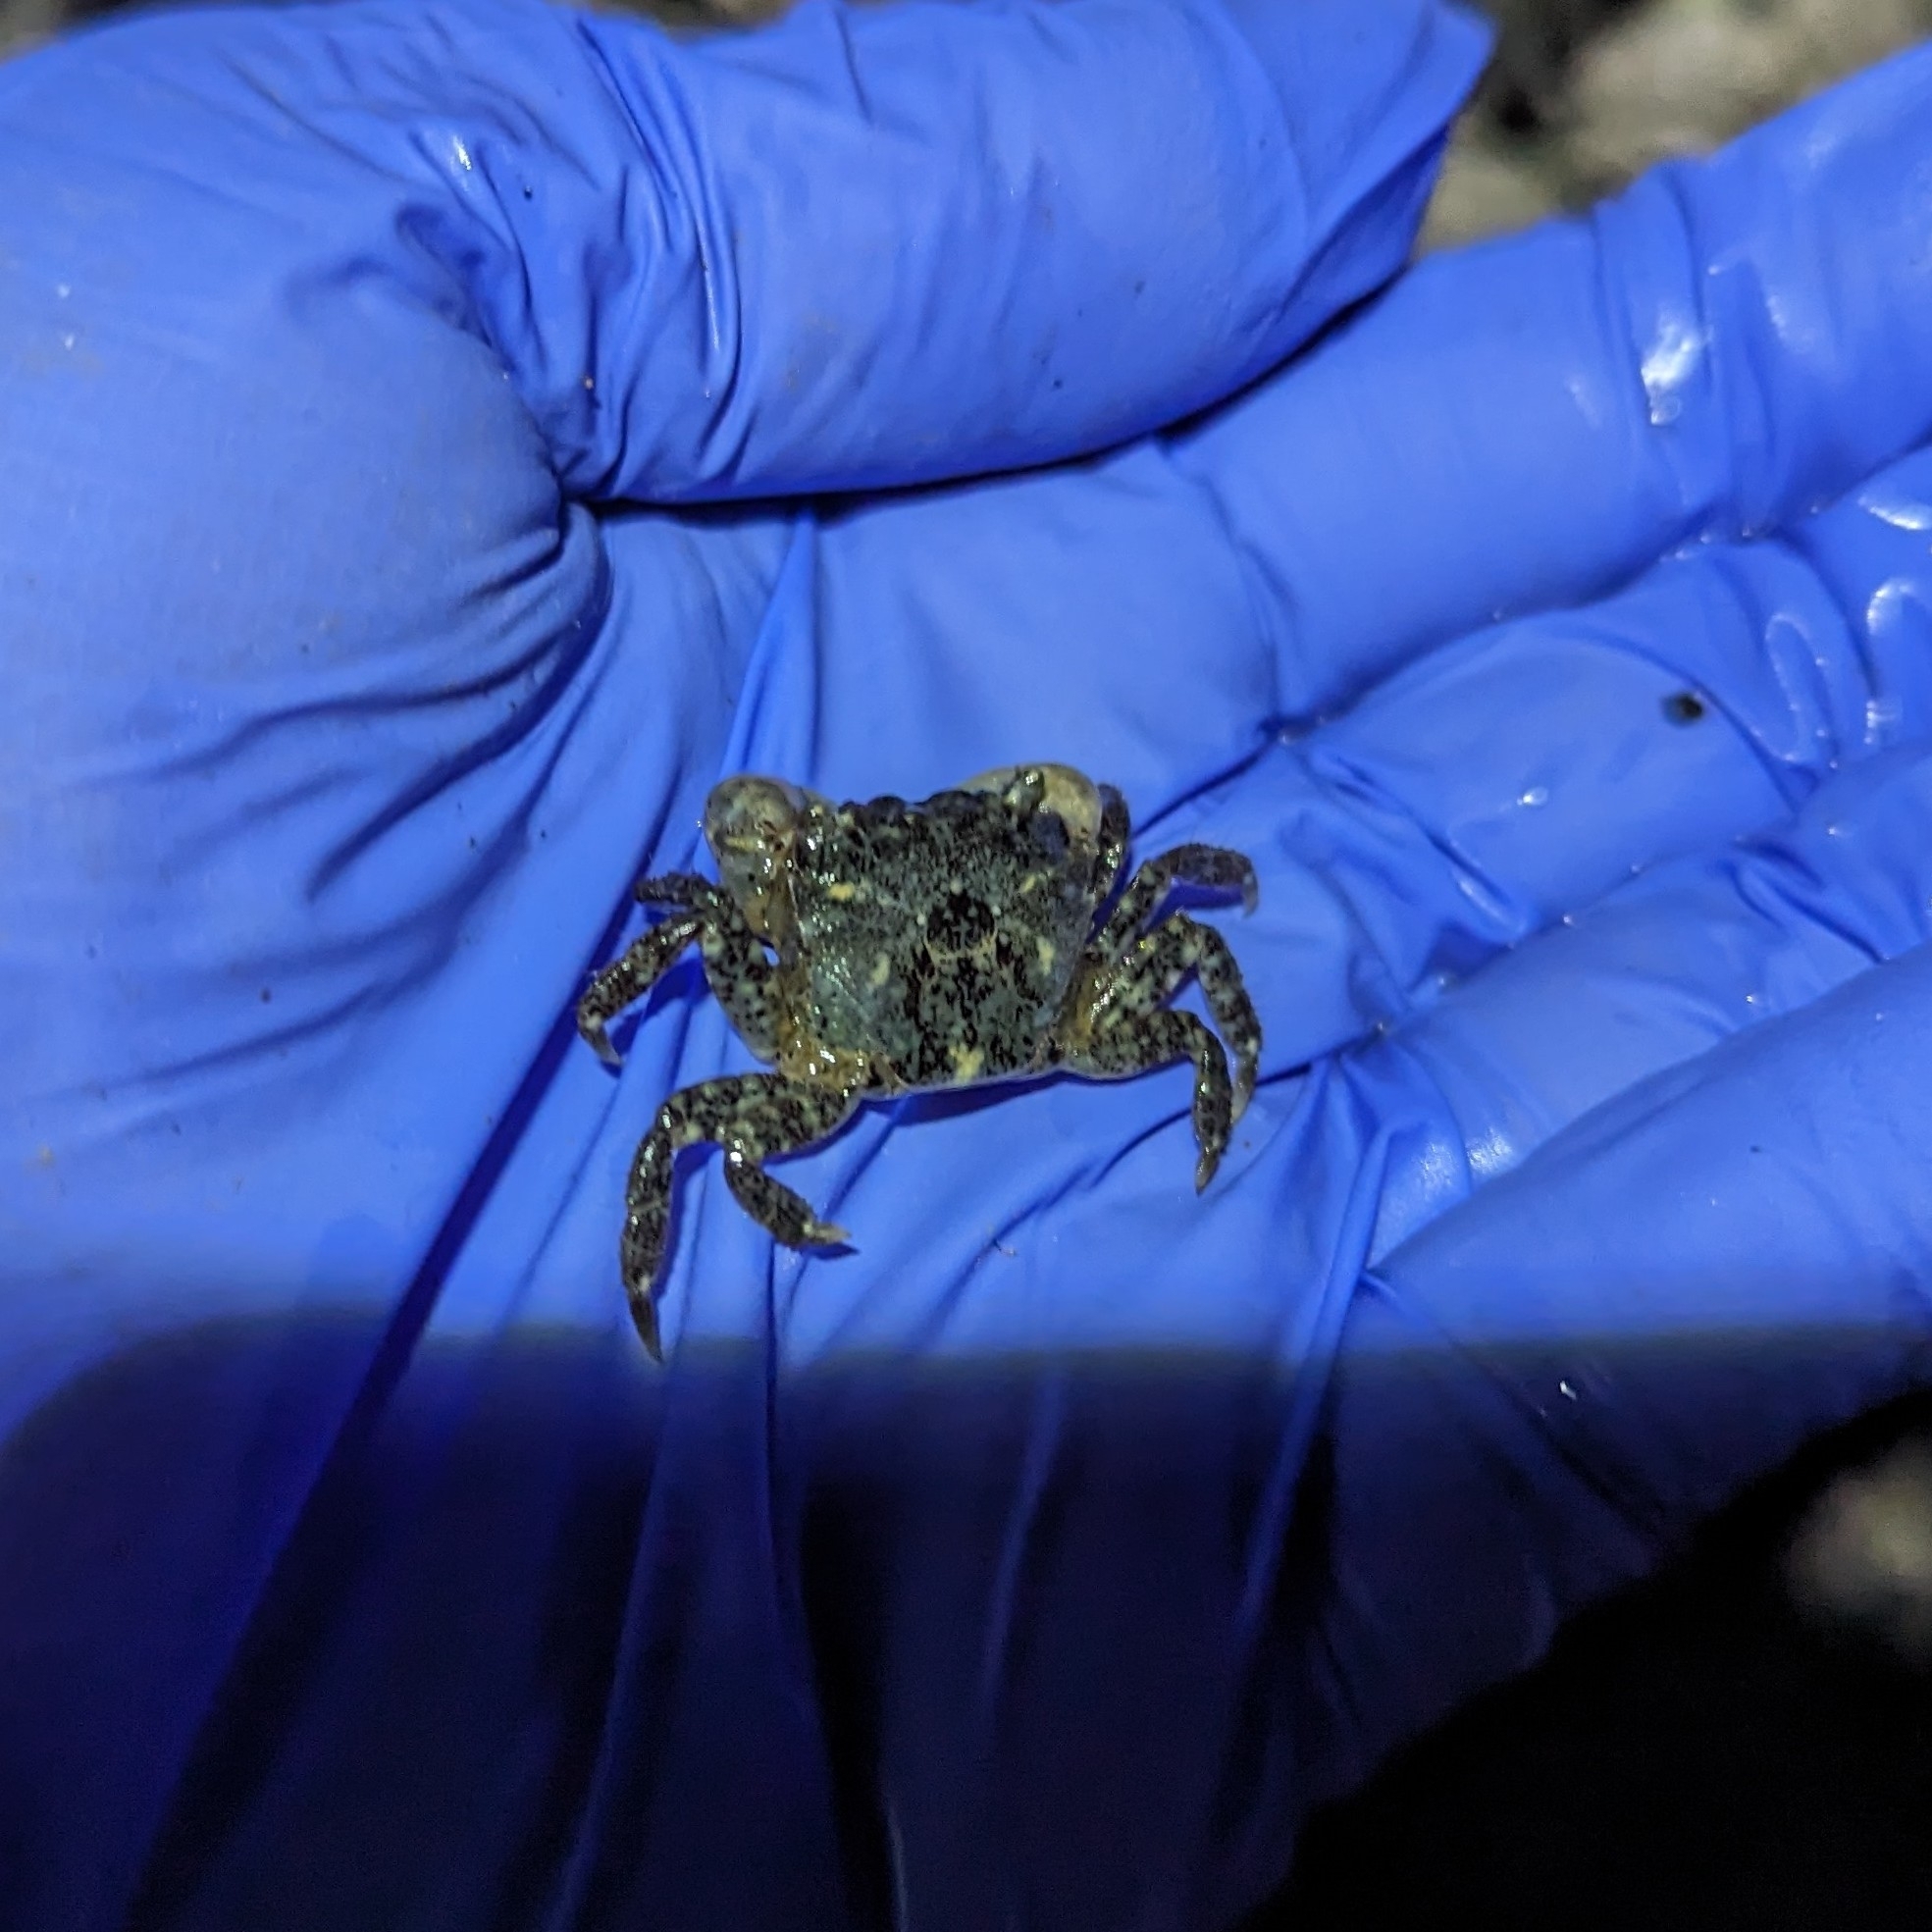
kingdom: Animalia
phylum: Arthropoda
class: Malacostraca
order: Decapoda
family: Varunidae
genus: Hemigrapsus
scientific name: Hemigrapsus oregonensis
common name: Yellow shore crab
